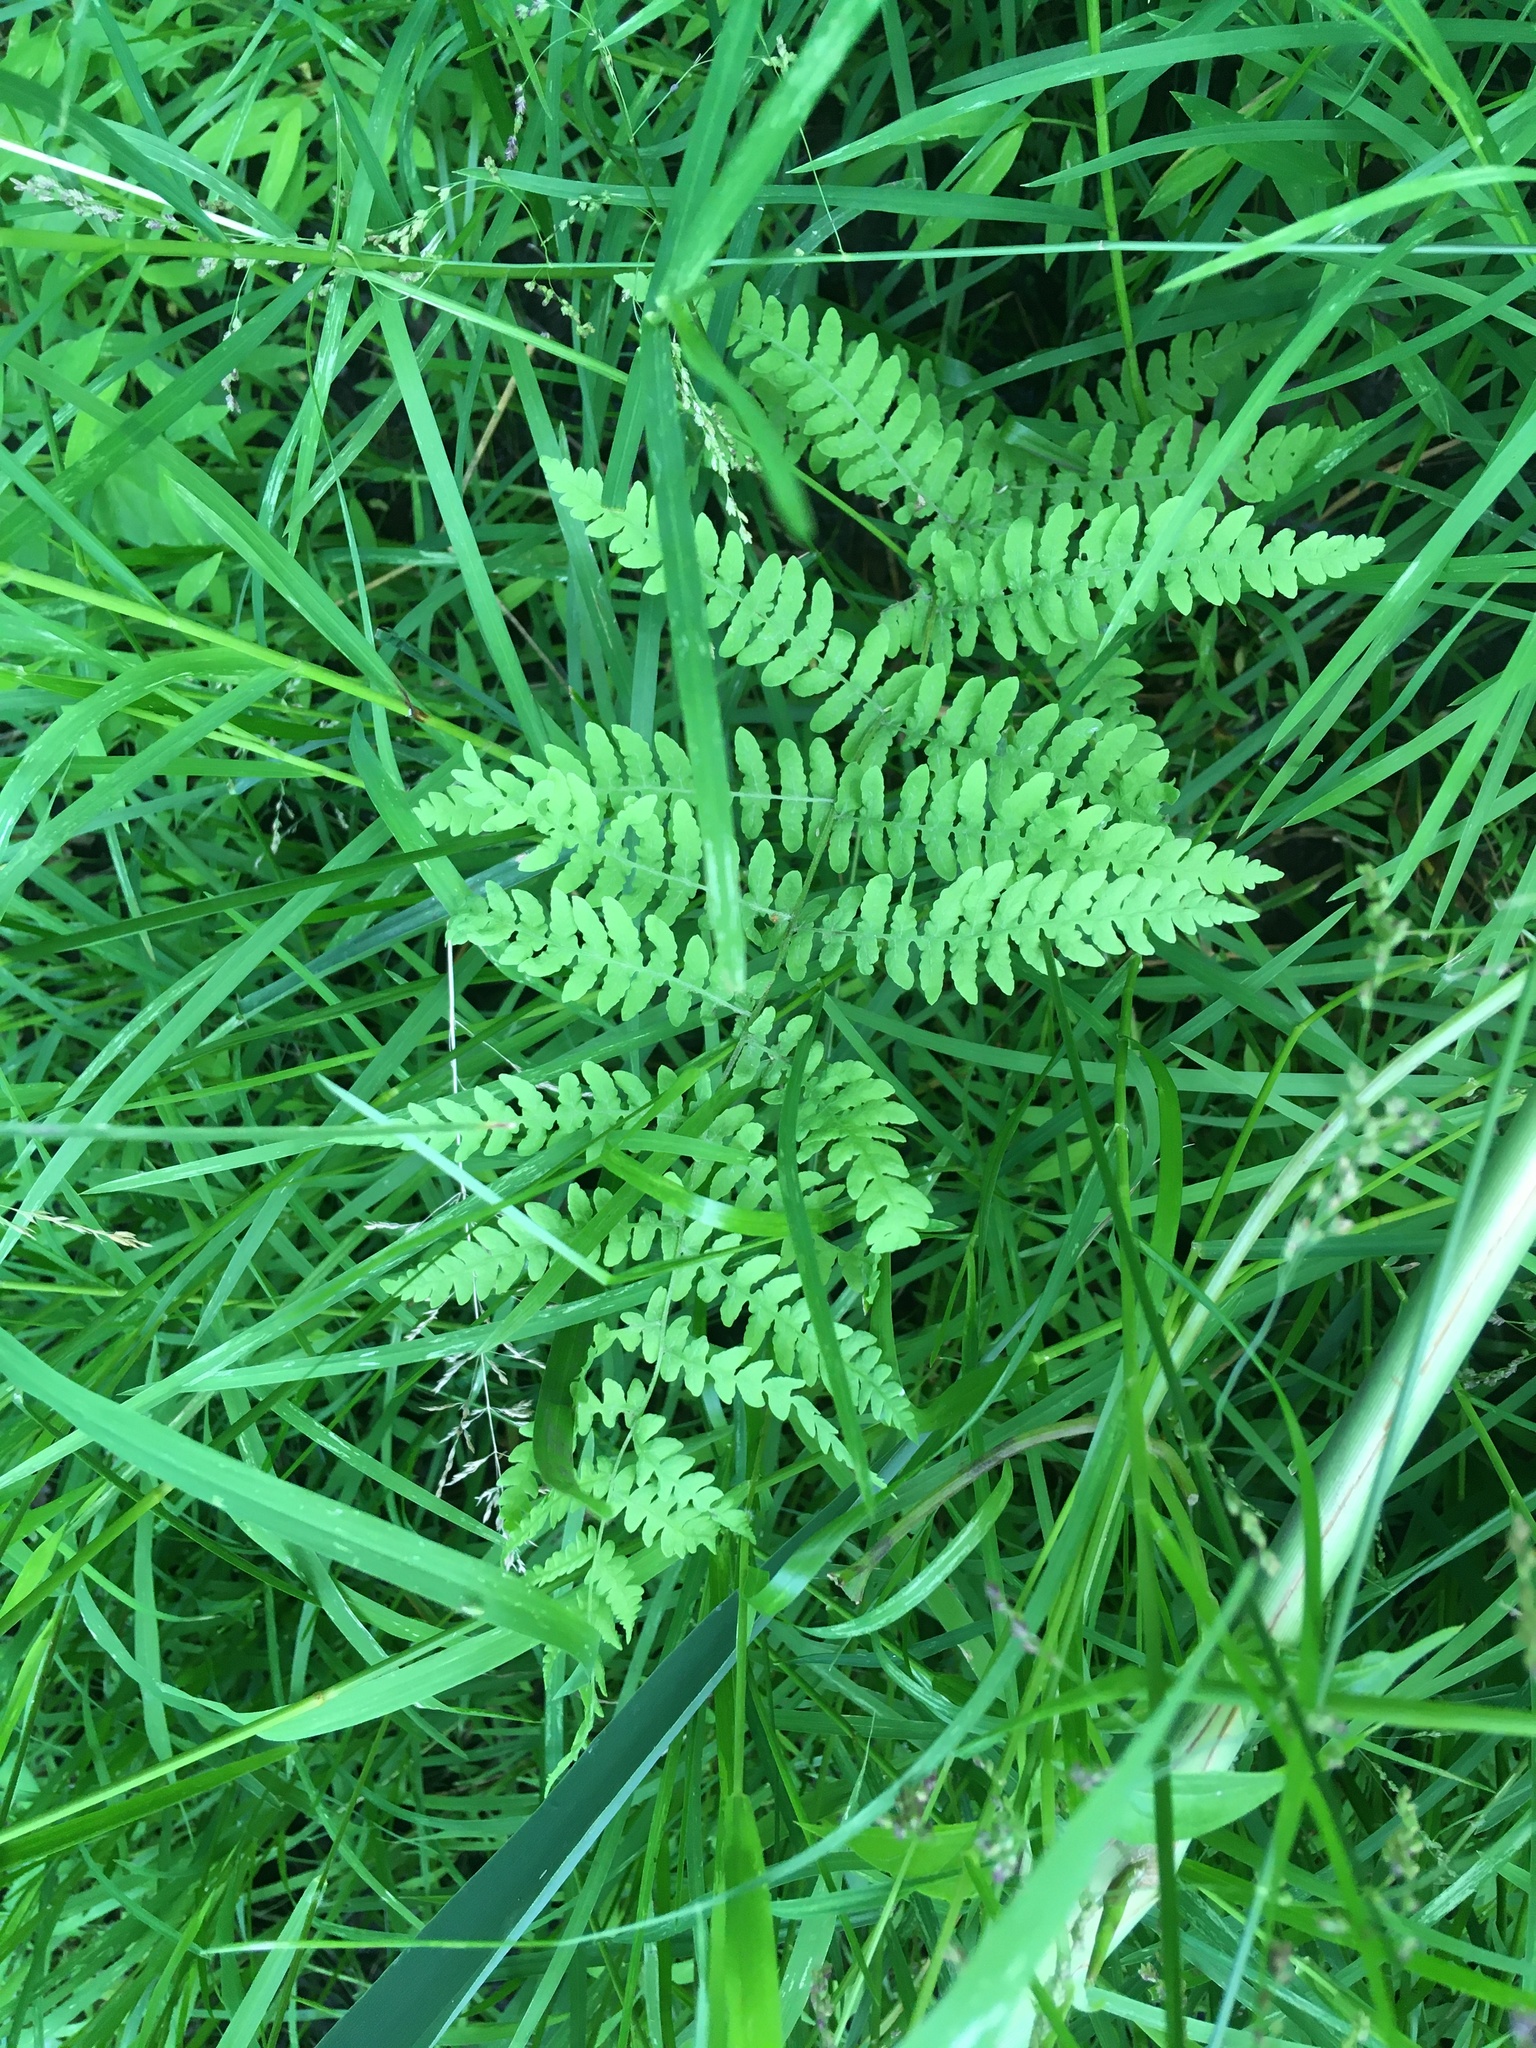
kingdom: Plantae
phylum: Tracheophyta
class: Polypodiopsida
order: Polypodiales
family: Thelypteridaceae
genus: Thelypteris
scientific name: Thelypteris palustris
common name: Marsh fern
